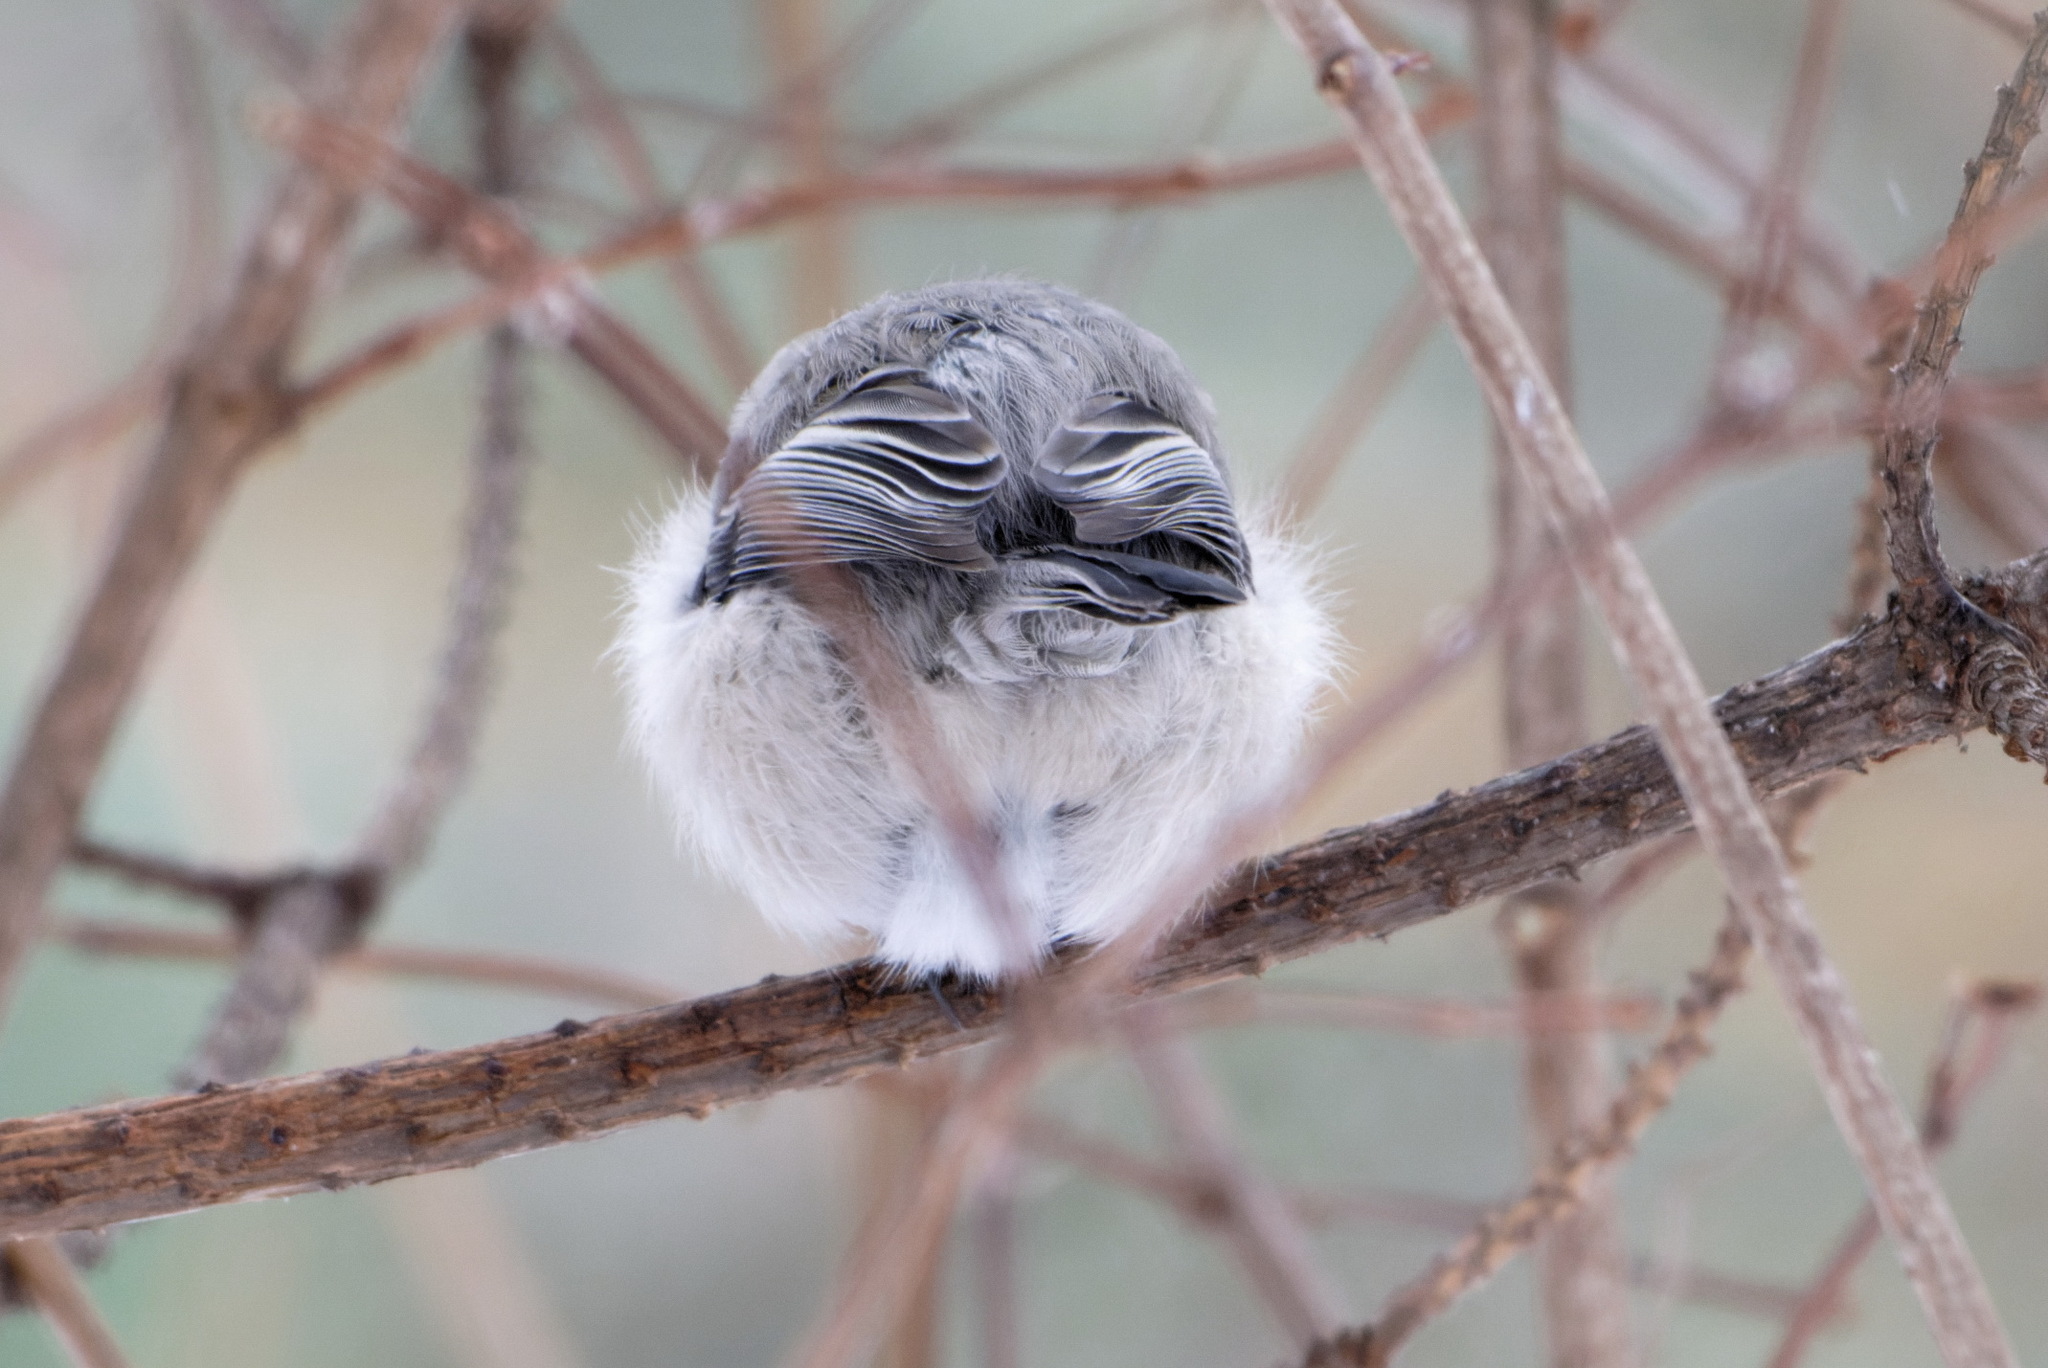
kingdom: Animalia
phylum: Chordata
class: Aves
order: Passeriformes
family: Paridae
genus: Poecile
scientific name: Poecile montanus
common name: Willow tit
